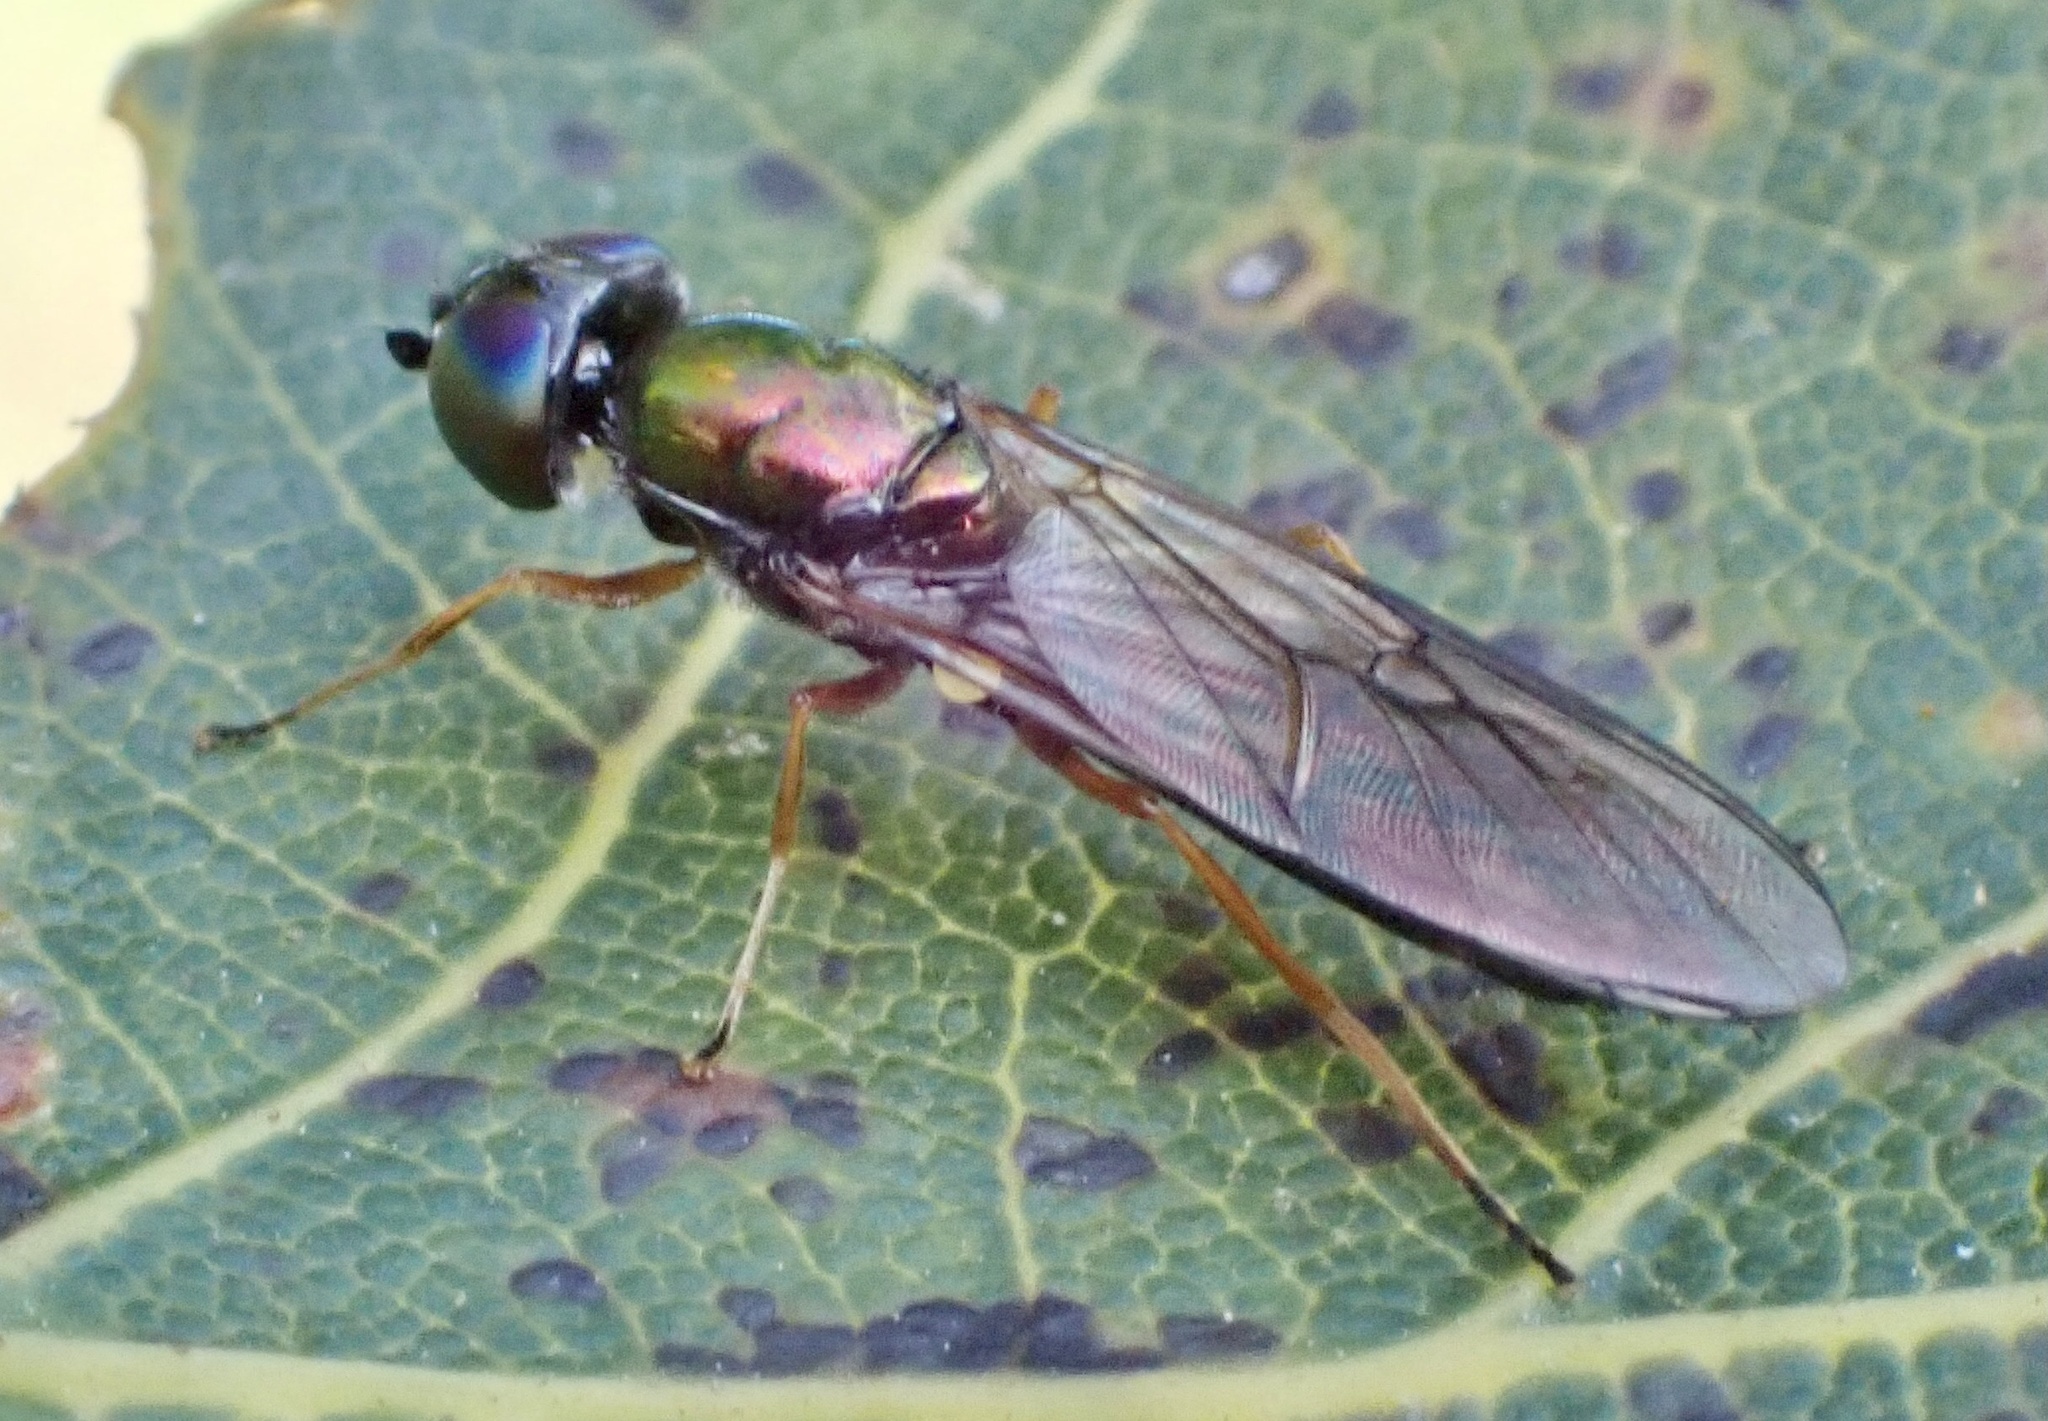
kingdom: Animalia
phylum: Arthropoda
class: Insecta
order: Diptera
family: Stratiomyidae
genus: Sargus
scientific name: Sargus flavipes
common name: Yellow-legged centurion
